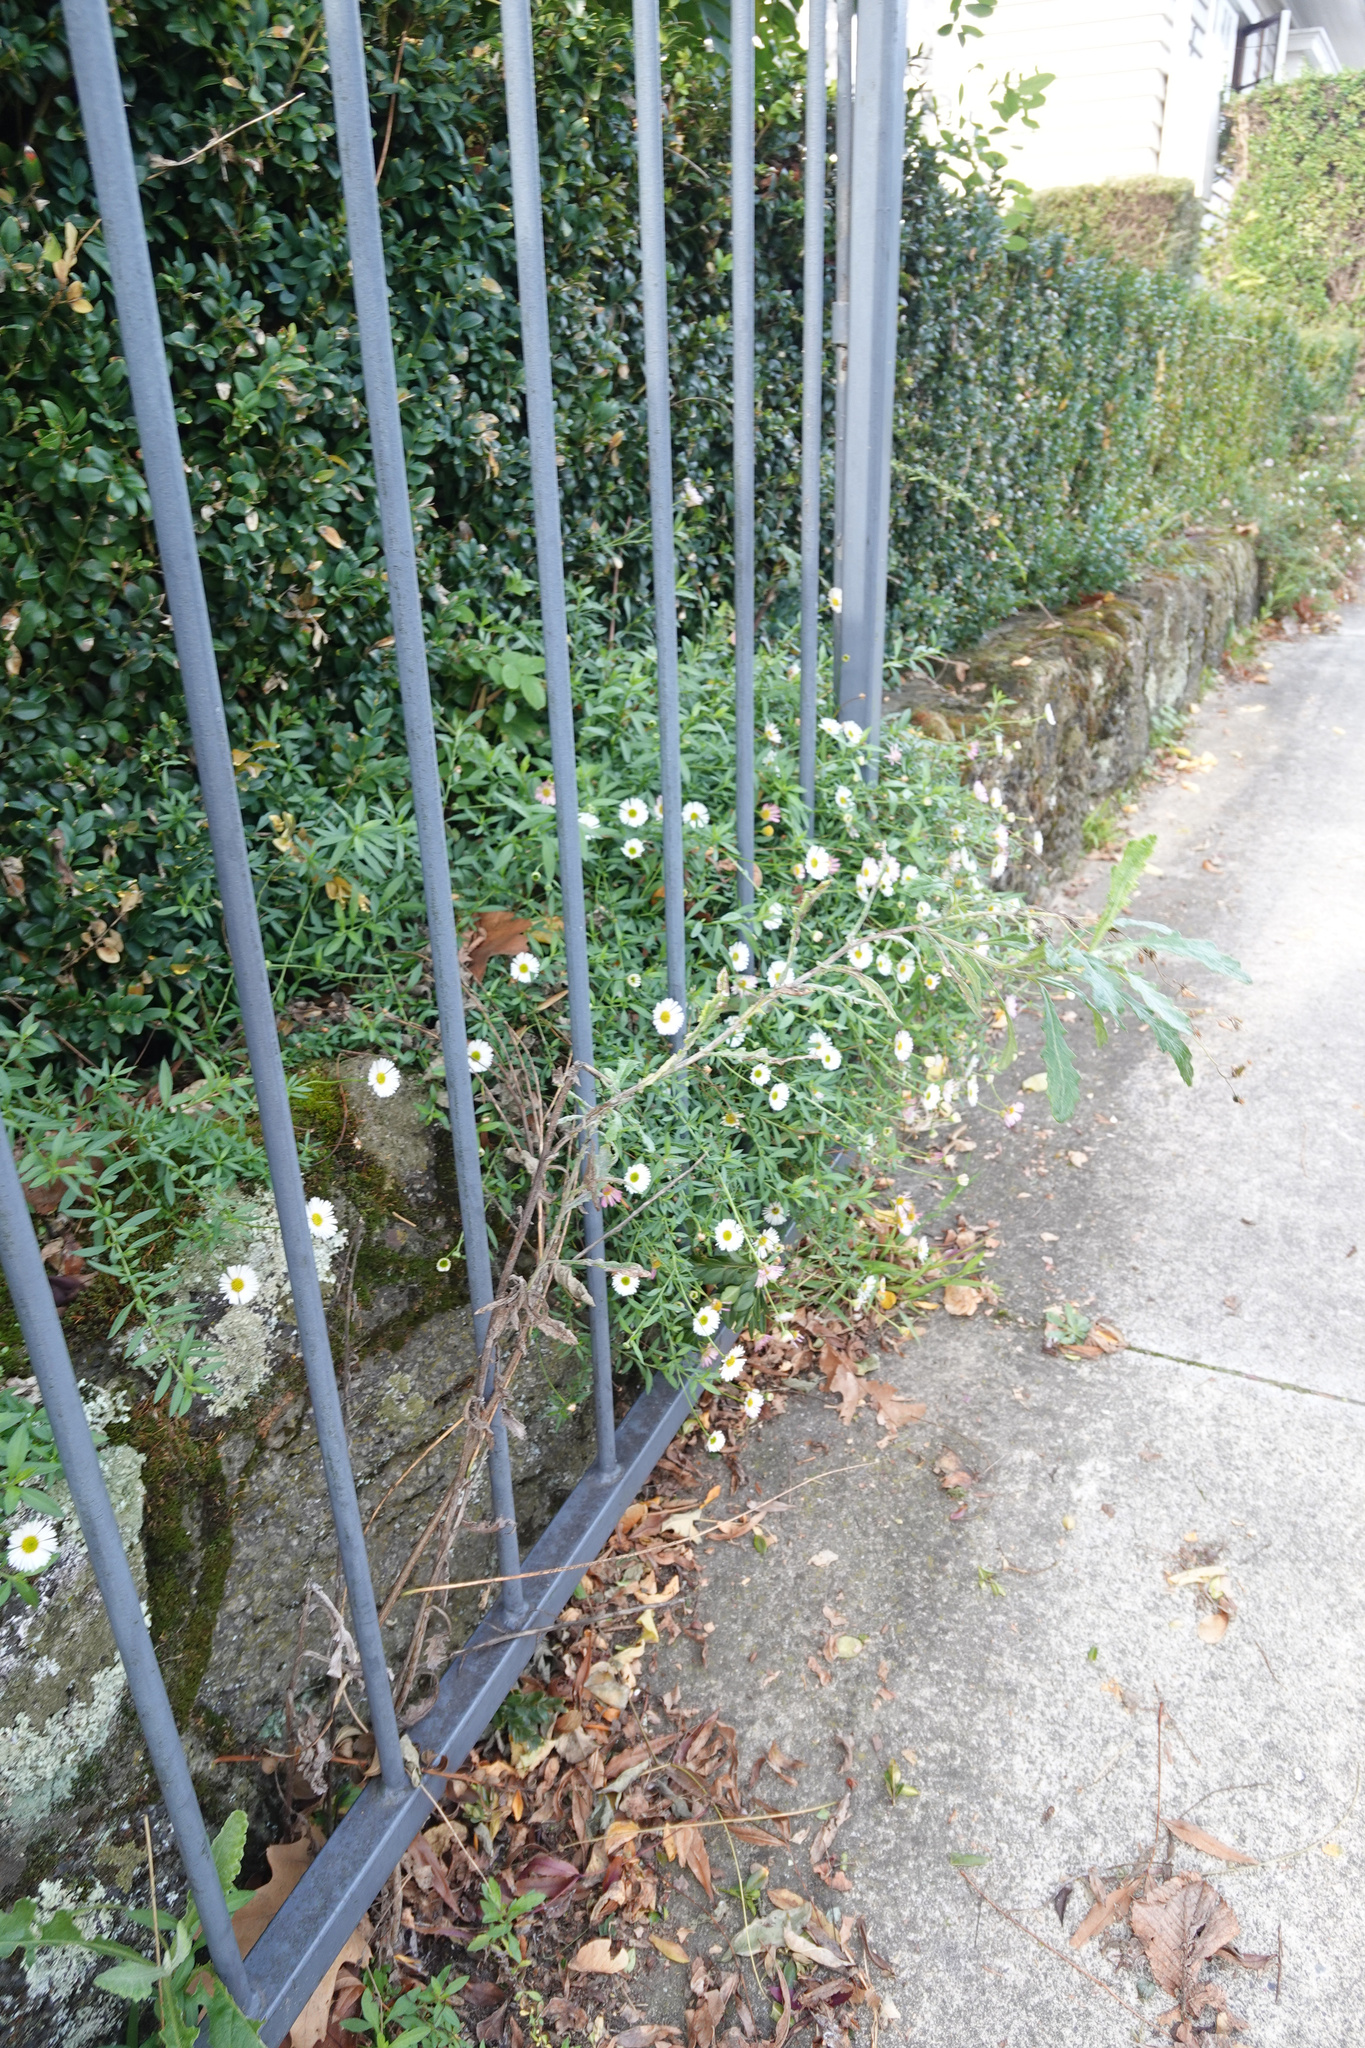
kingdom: Plantae
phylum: Tracheophyta
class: Magnoliopsida
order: Asterales
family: Asteraceae
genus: Erigeron
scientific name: Erigeron karvinskianus
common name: Mexican fleabane
